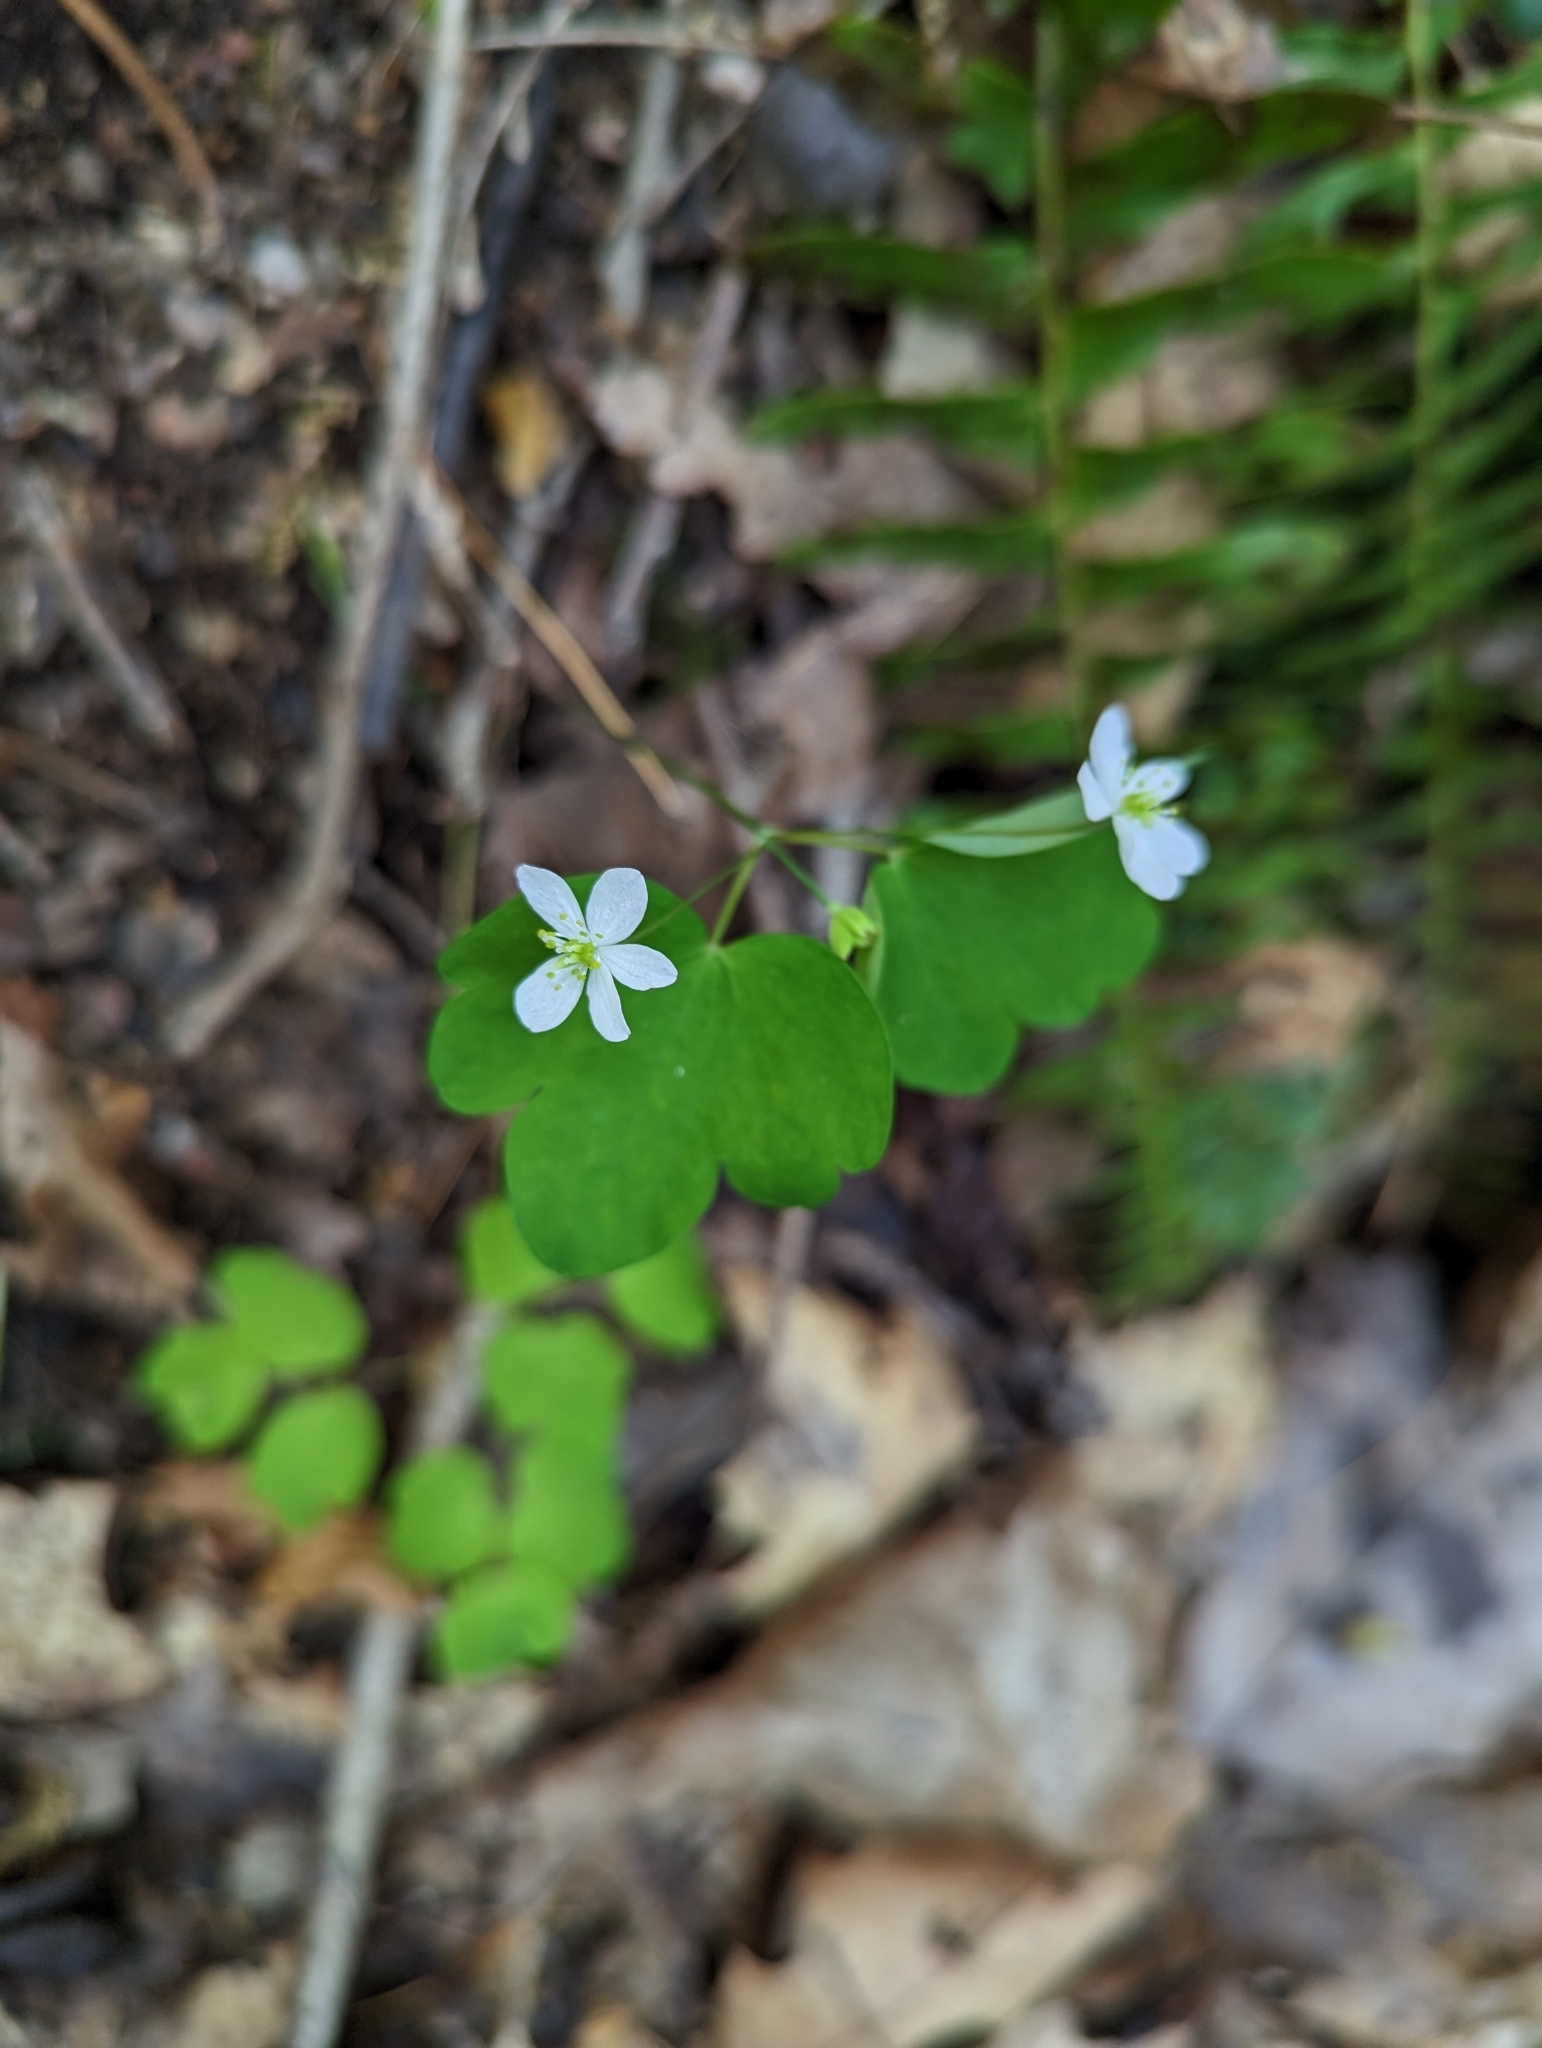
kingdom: Plantae
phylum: Tracheophyta
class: Magnoliopsida
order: Ranunculales
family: Ranunculaceae
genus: Thalictrum
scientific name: Thalictrum thalictroides
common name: Rue-anemone
